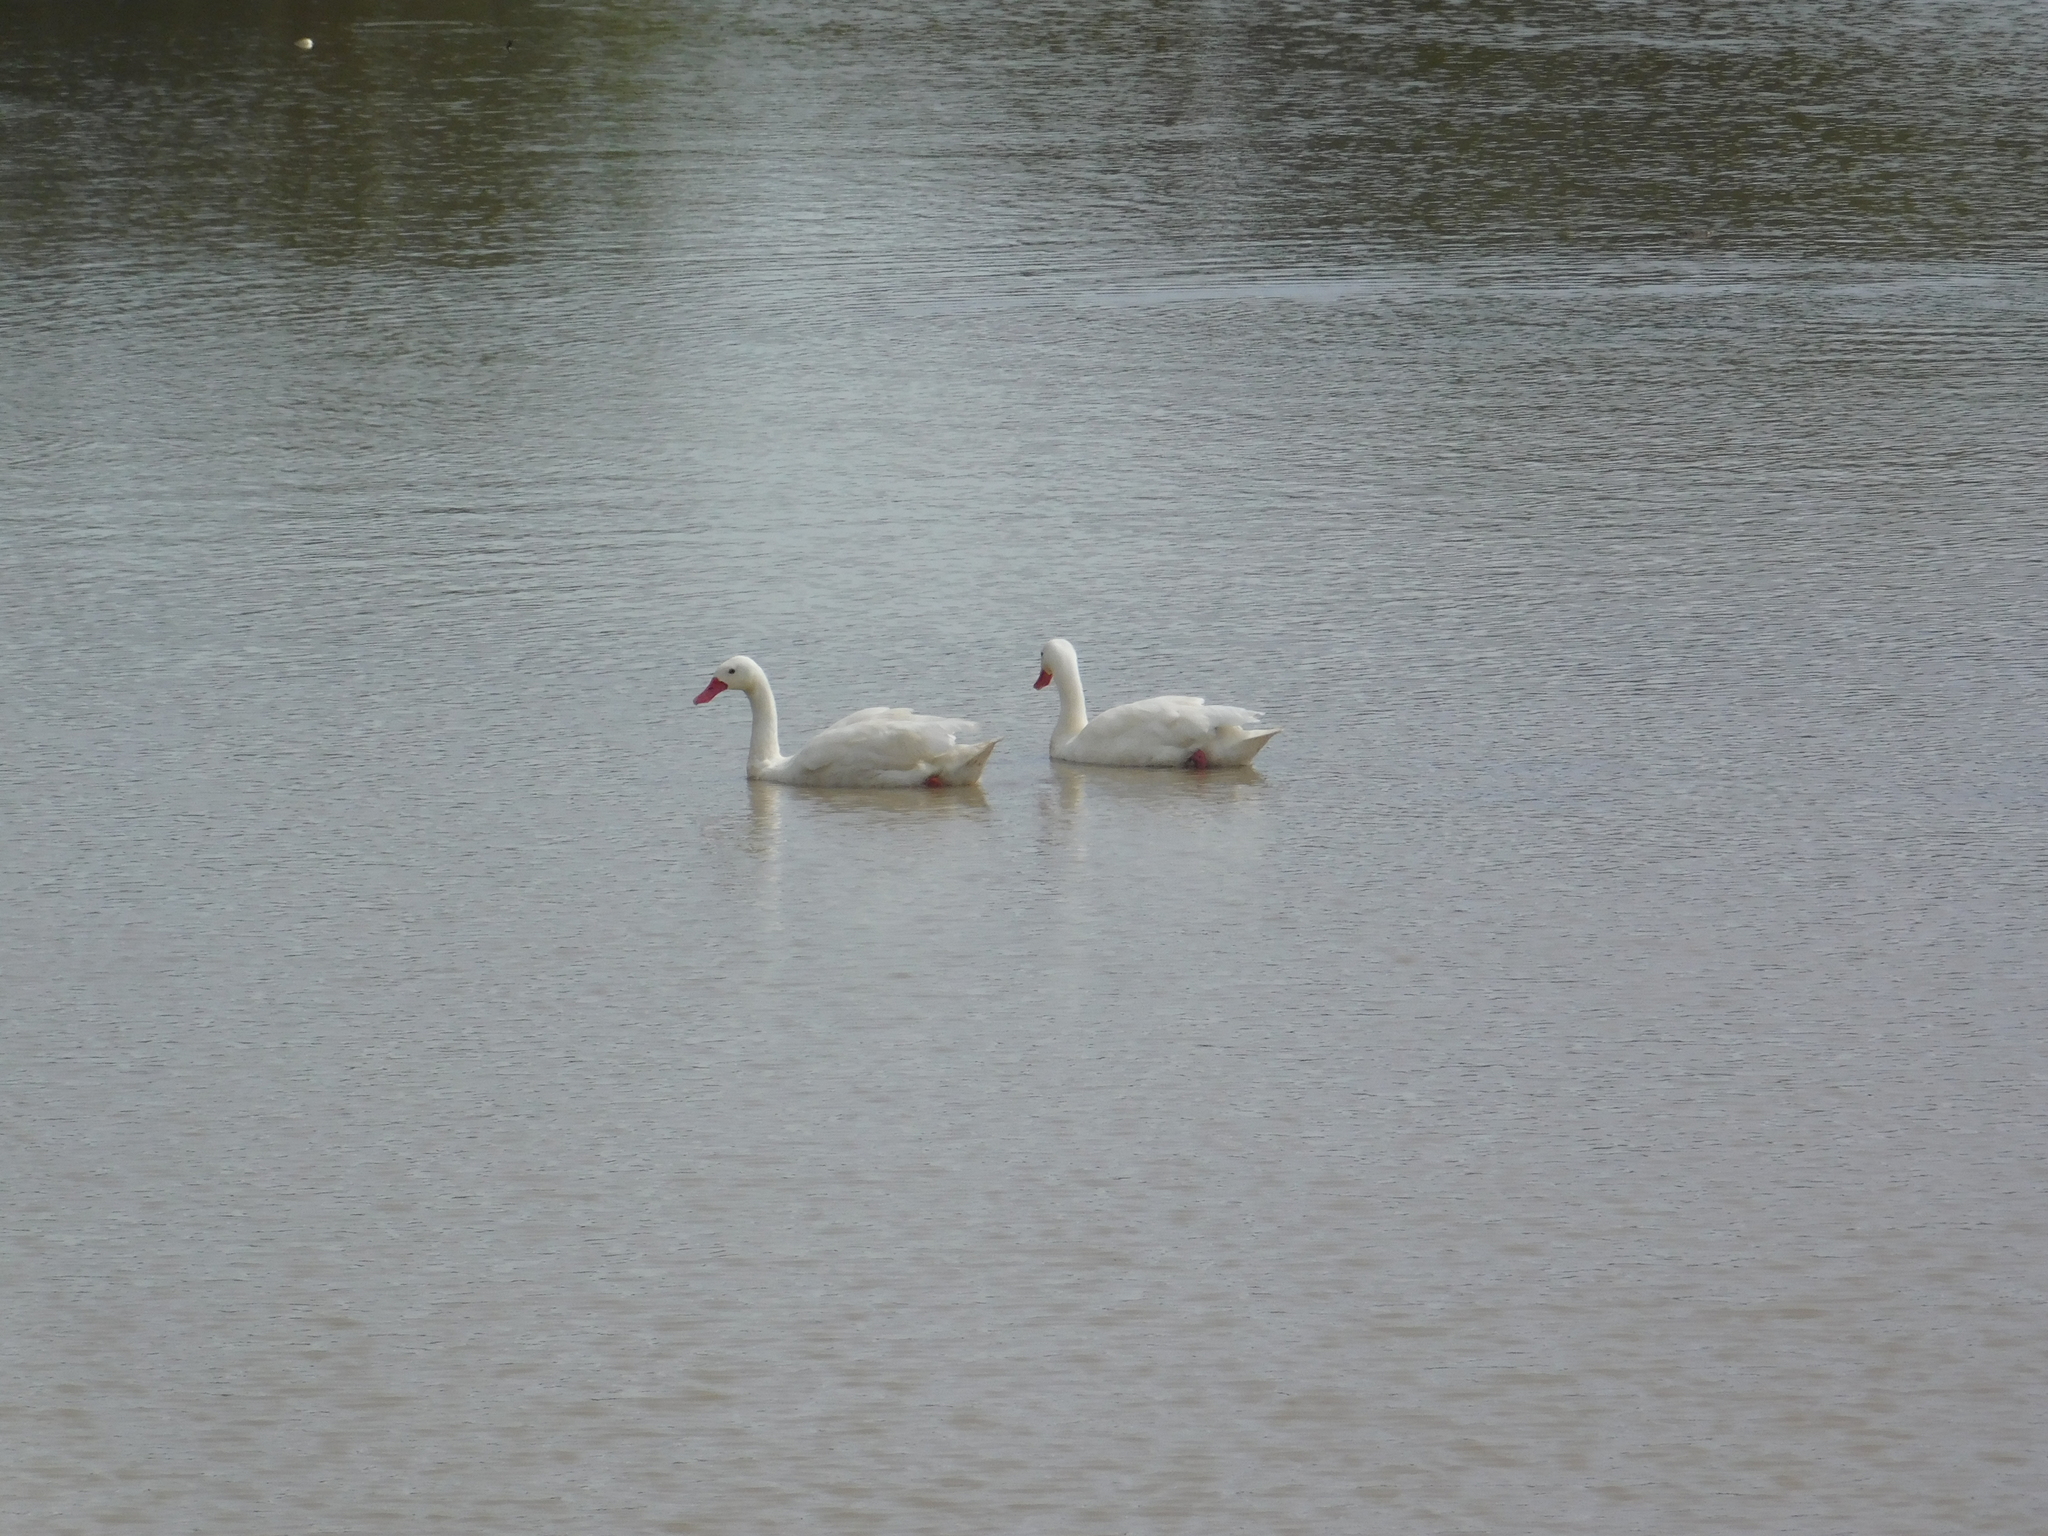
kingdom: Animalia
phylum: Chordata
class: Aves
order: Anseriformes
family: Anatidae
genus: Coscoroba
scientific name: Coscoroba coscoroba
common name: Coscoroba swan
